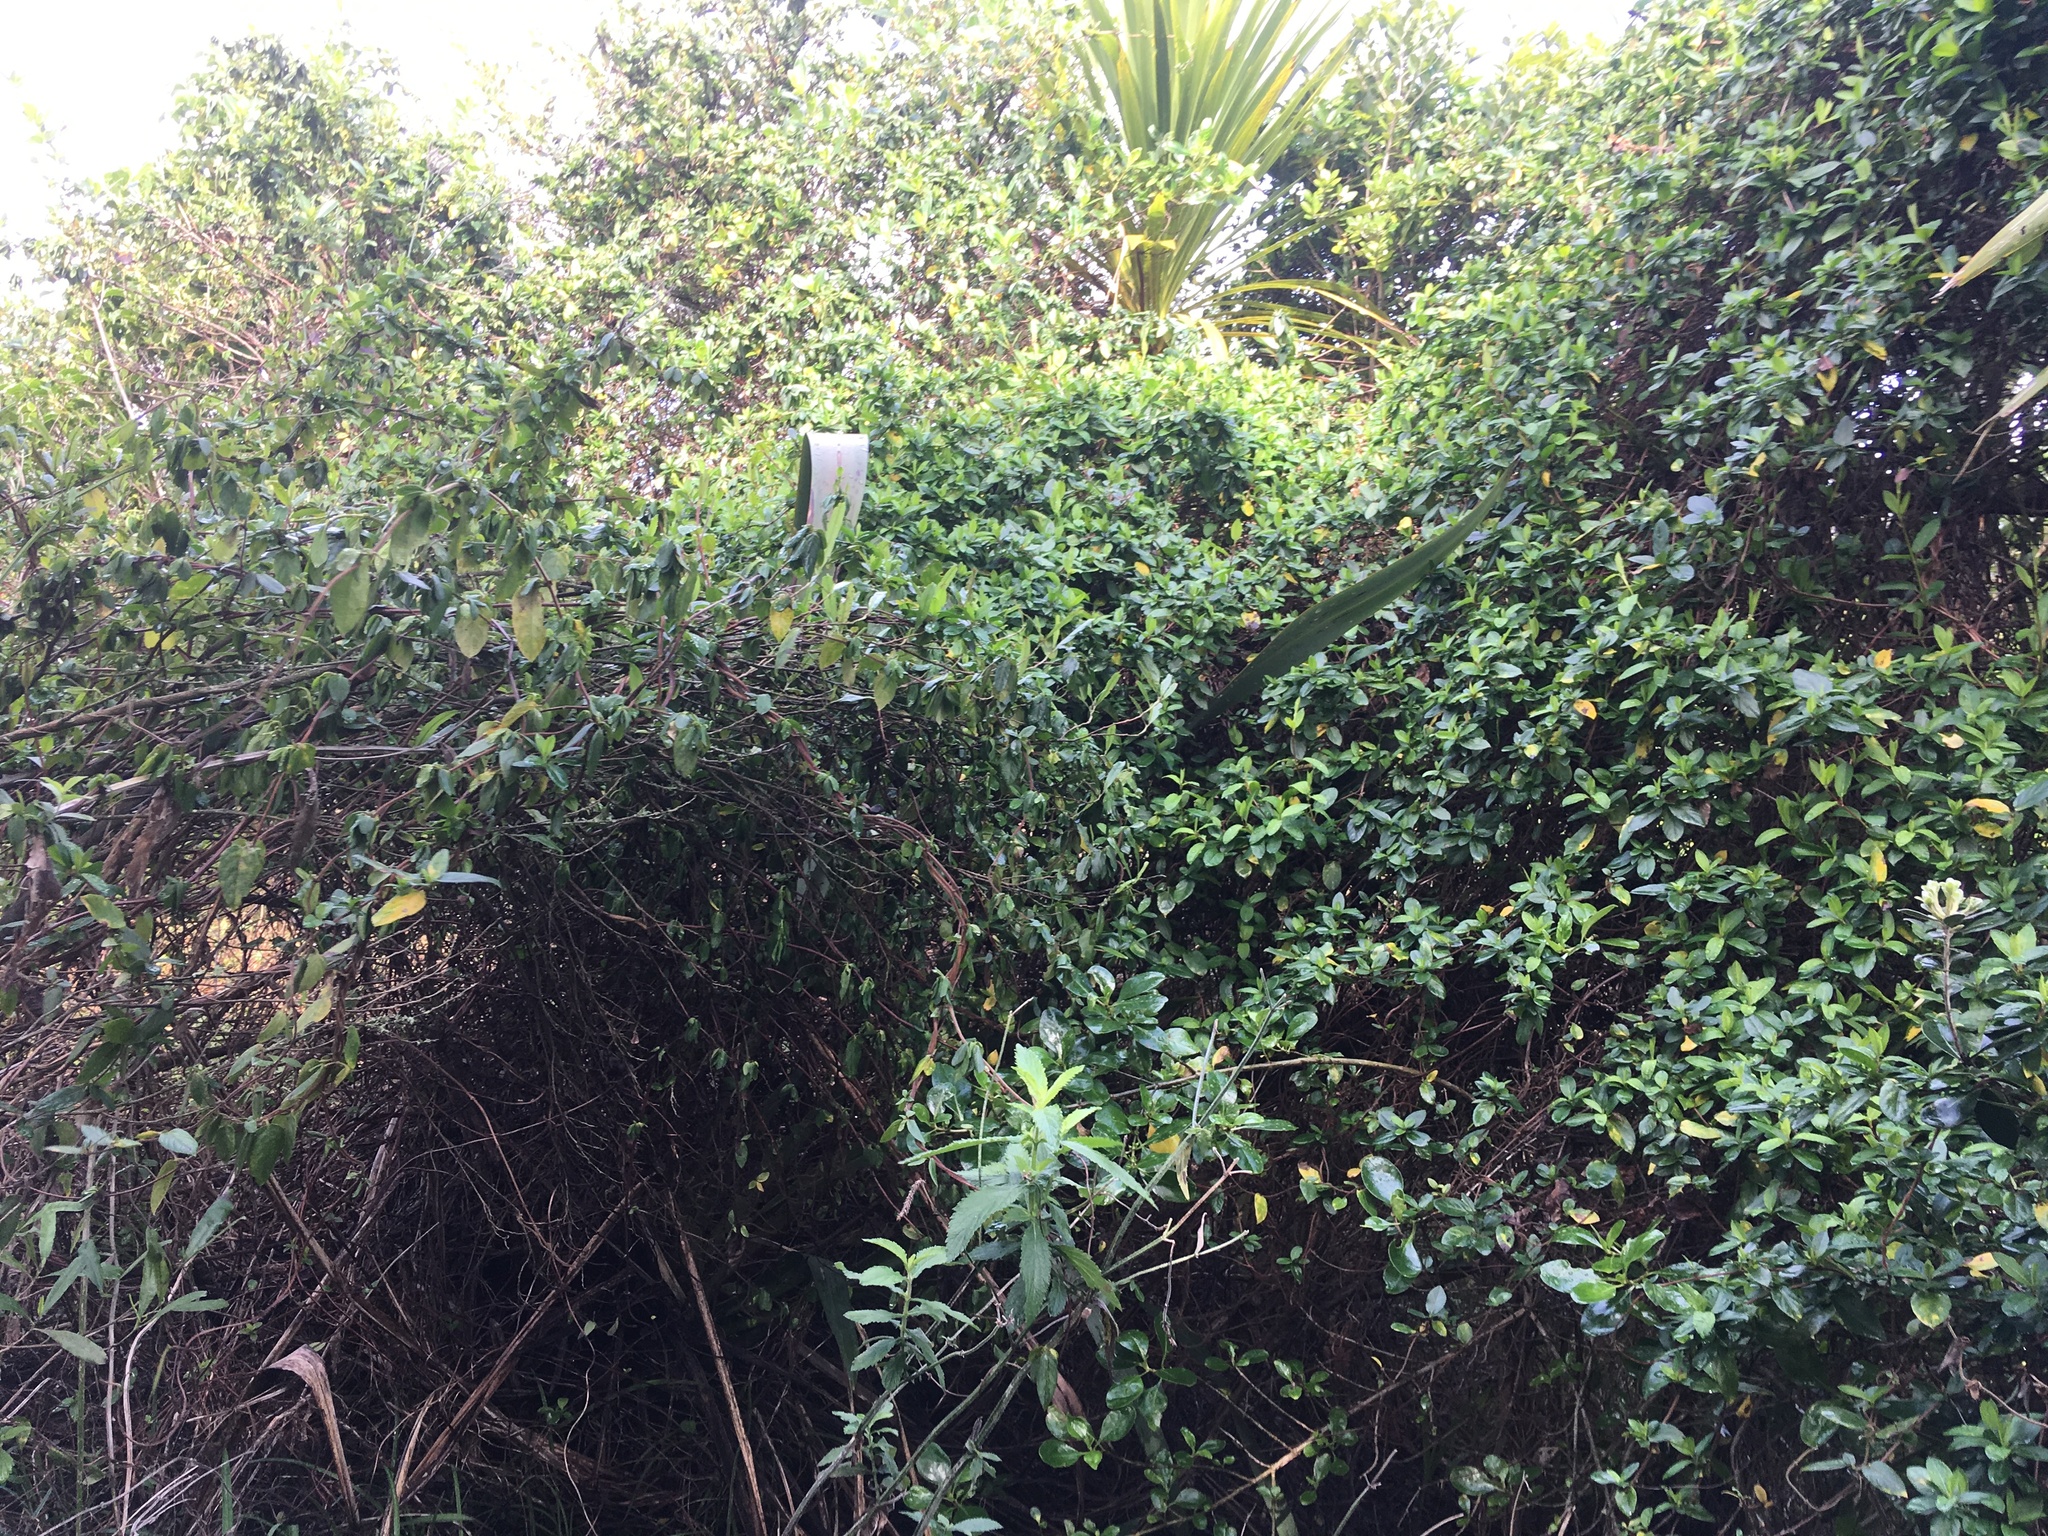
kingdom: Plantae
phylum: Tracheophyta
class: Magnoliopsida
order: Dipsacales
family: Caprifoliaceae
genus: Lonicera
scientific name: Lonicera japonica
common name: Japanese honeysuckle
